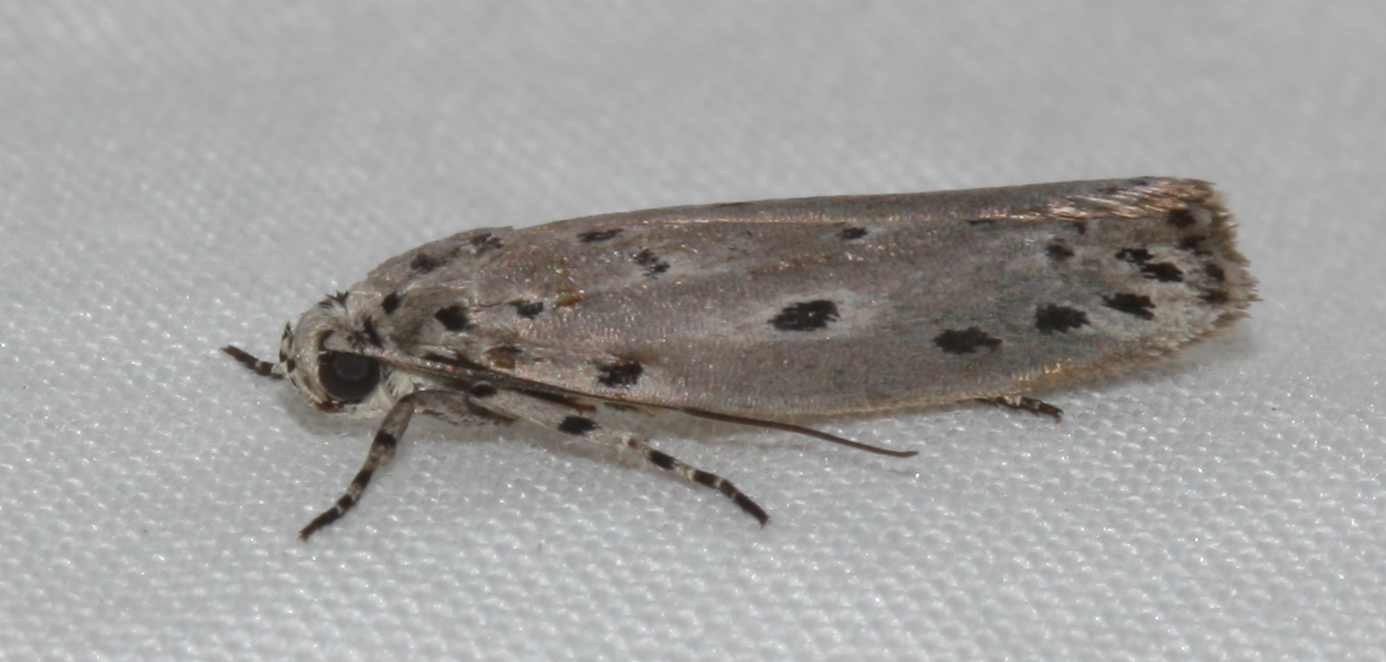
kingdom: Animalia
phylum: Arthropoda
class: Insecta
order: Lepidoptera
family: Ethmiidae
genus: Ethmia
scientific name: Ethmia nigroapicella
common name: Kou leaf worm
